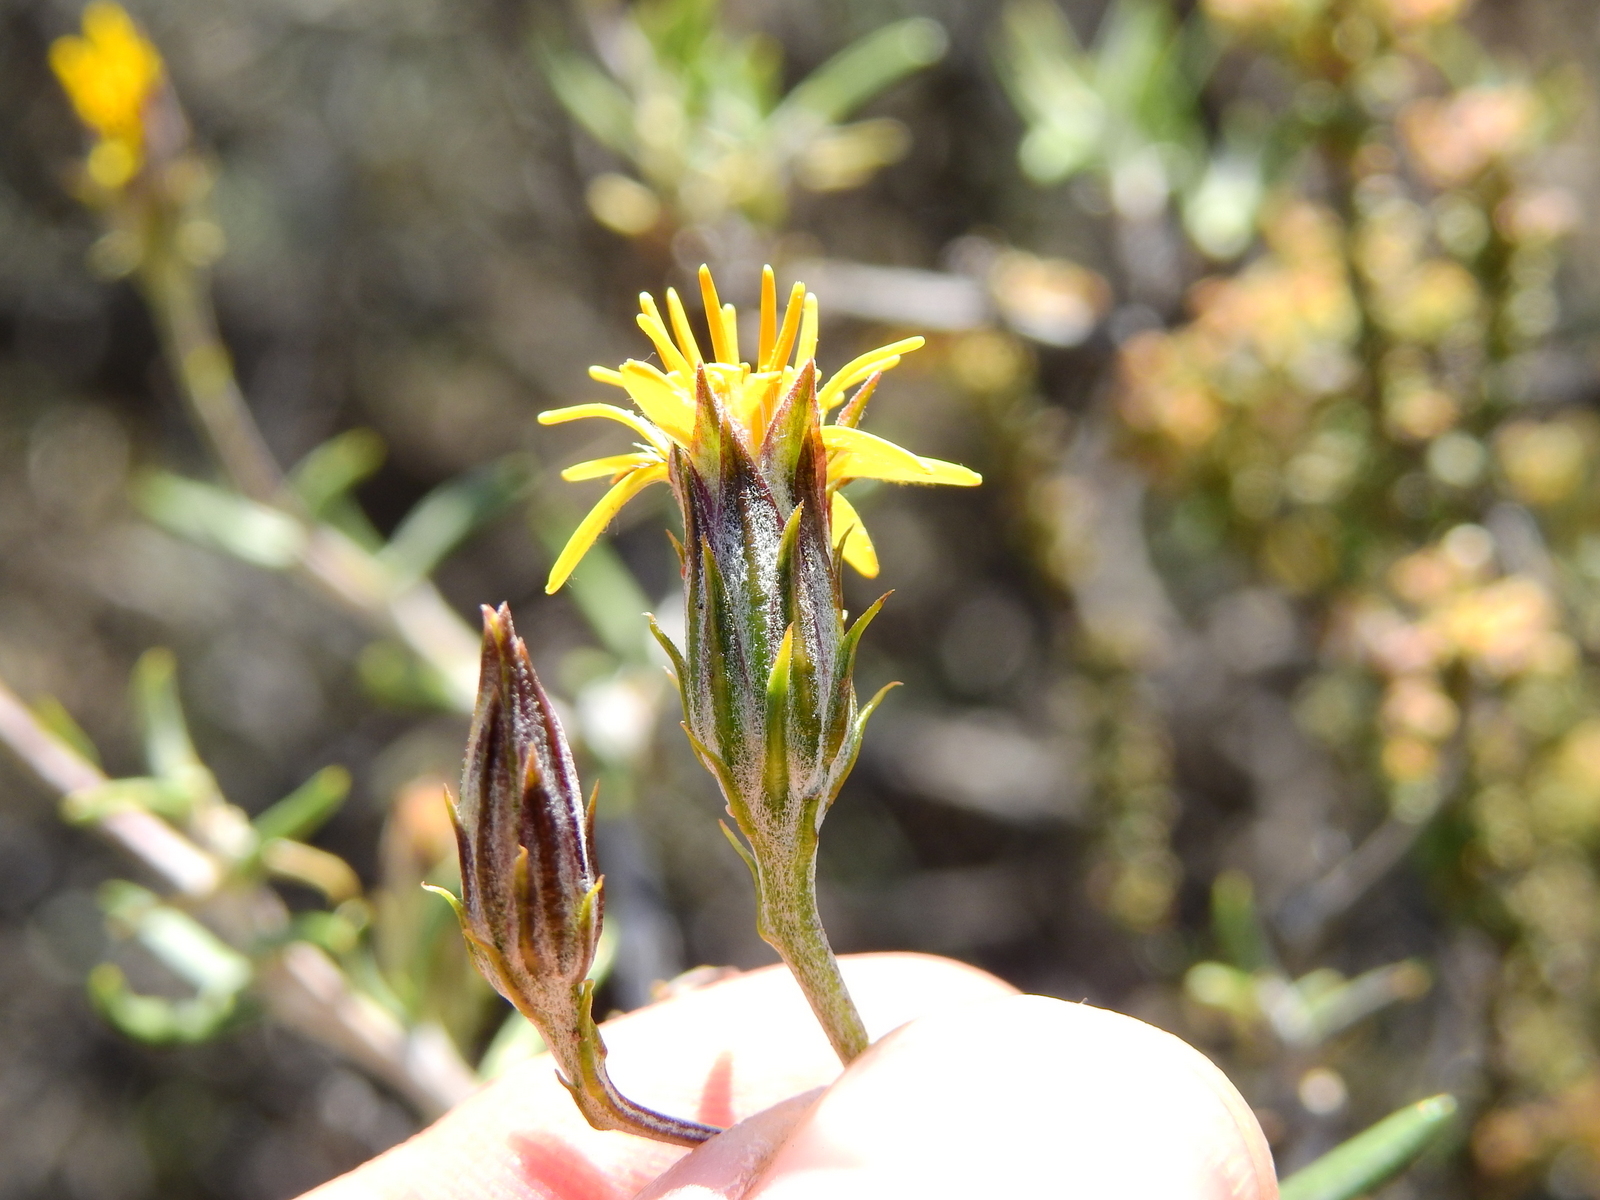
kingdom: Plantae
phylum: Tracheophyta
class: Magnoliopsida
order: Asterales
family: Asteraceae
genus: Brachyclados
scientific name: Brachyclados lycioides
